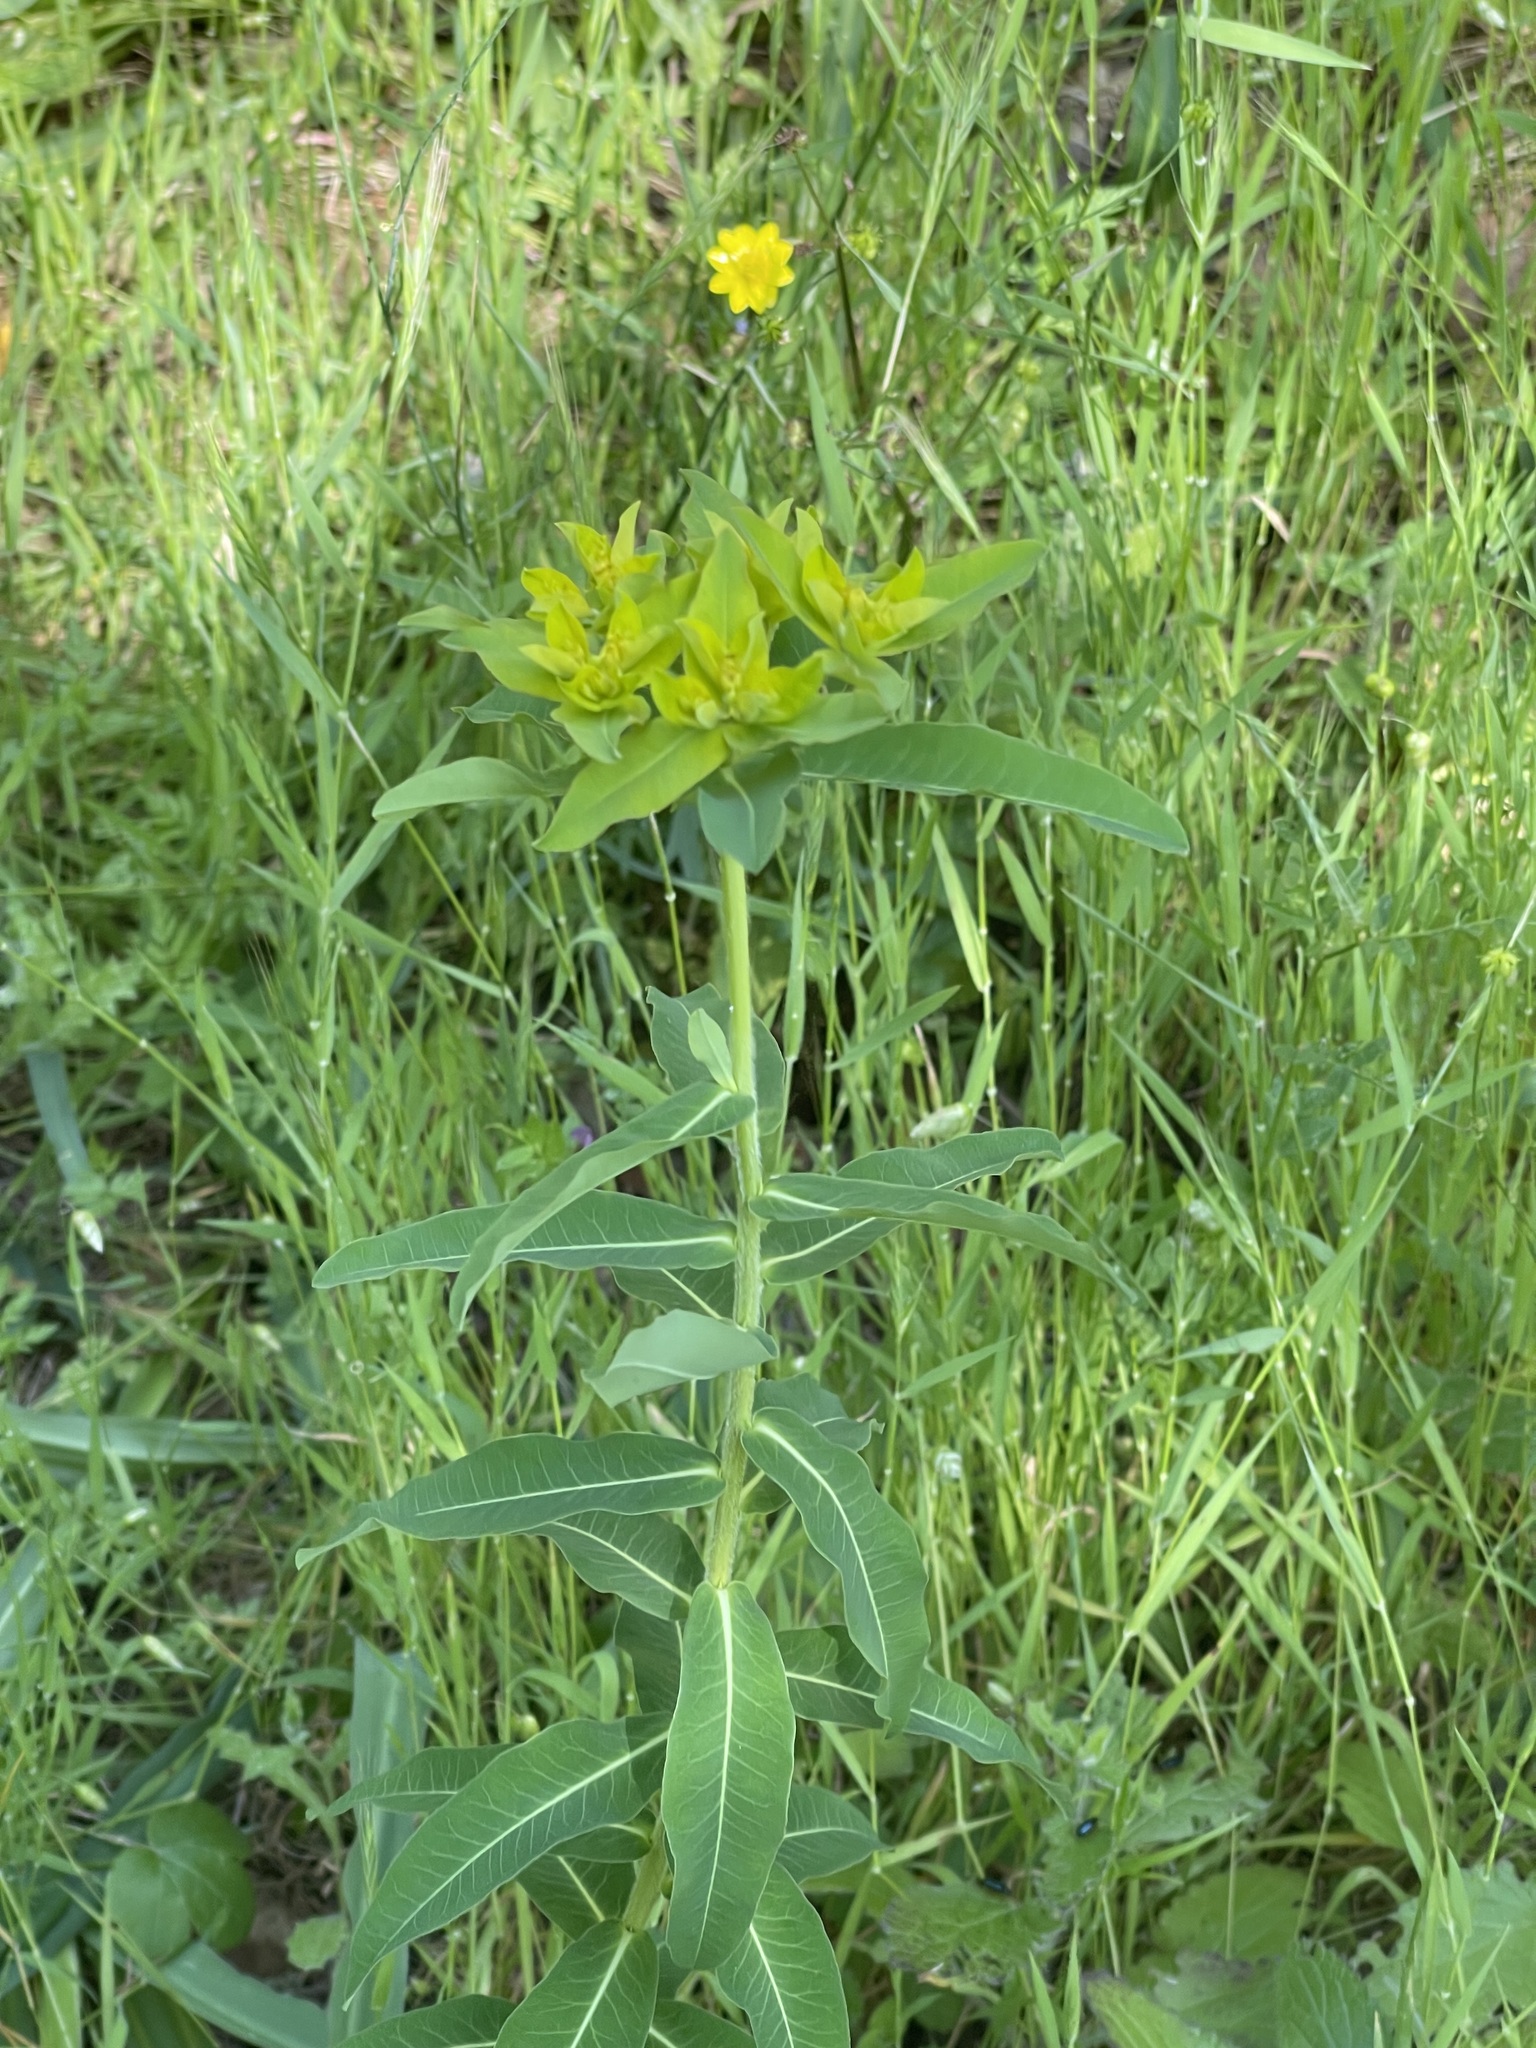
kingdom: Plantae
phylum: Tracheophyta
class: Magnoliopsida
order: Malpighiales
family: Euphorbiaceae
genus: Euphorbia
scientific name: Euphorbia oblongata
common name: Balkan spurge
